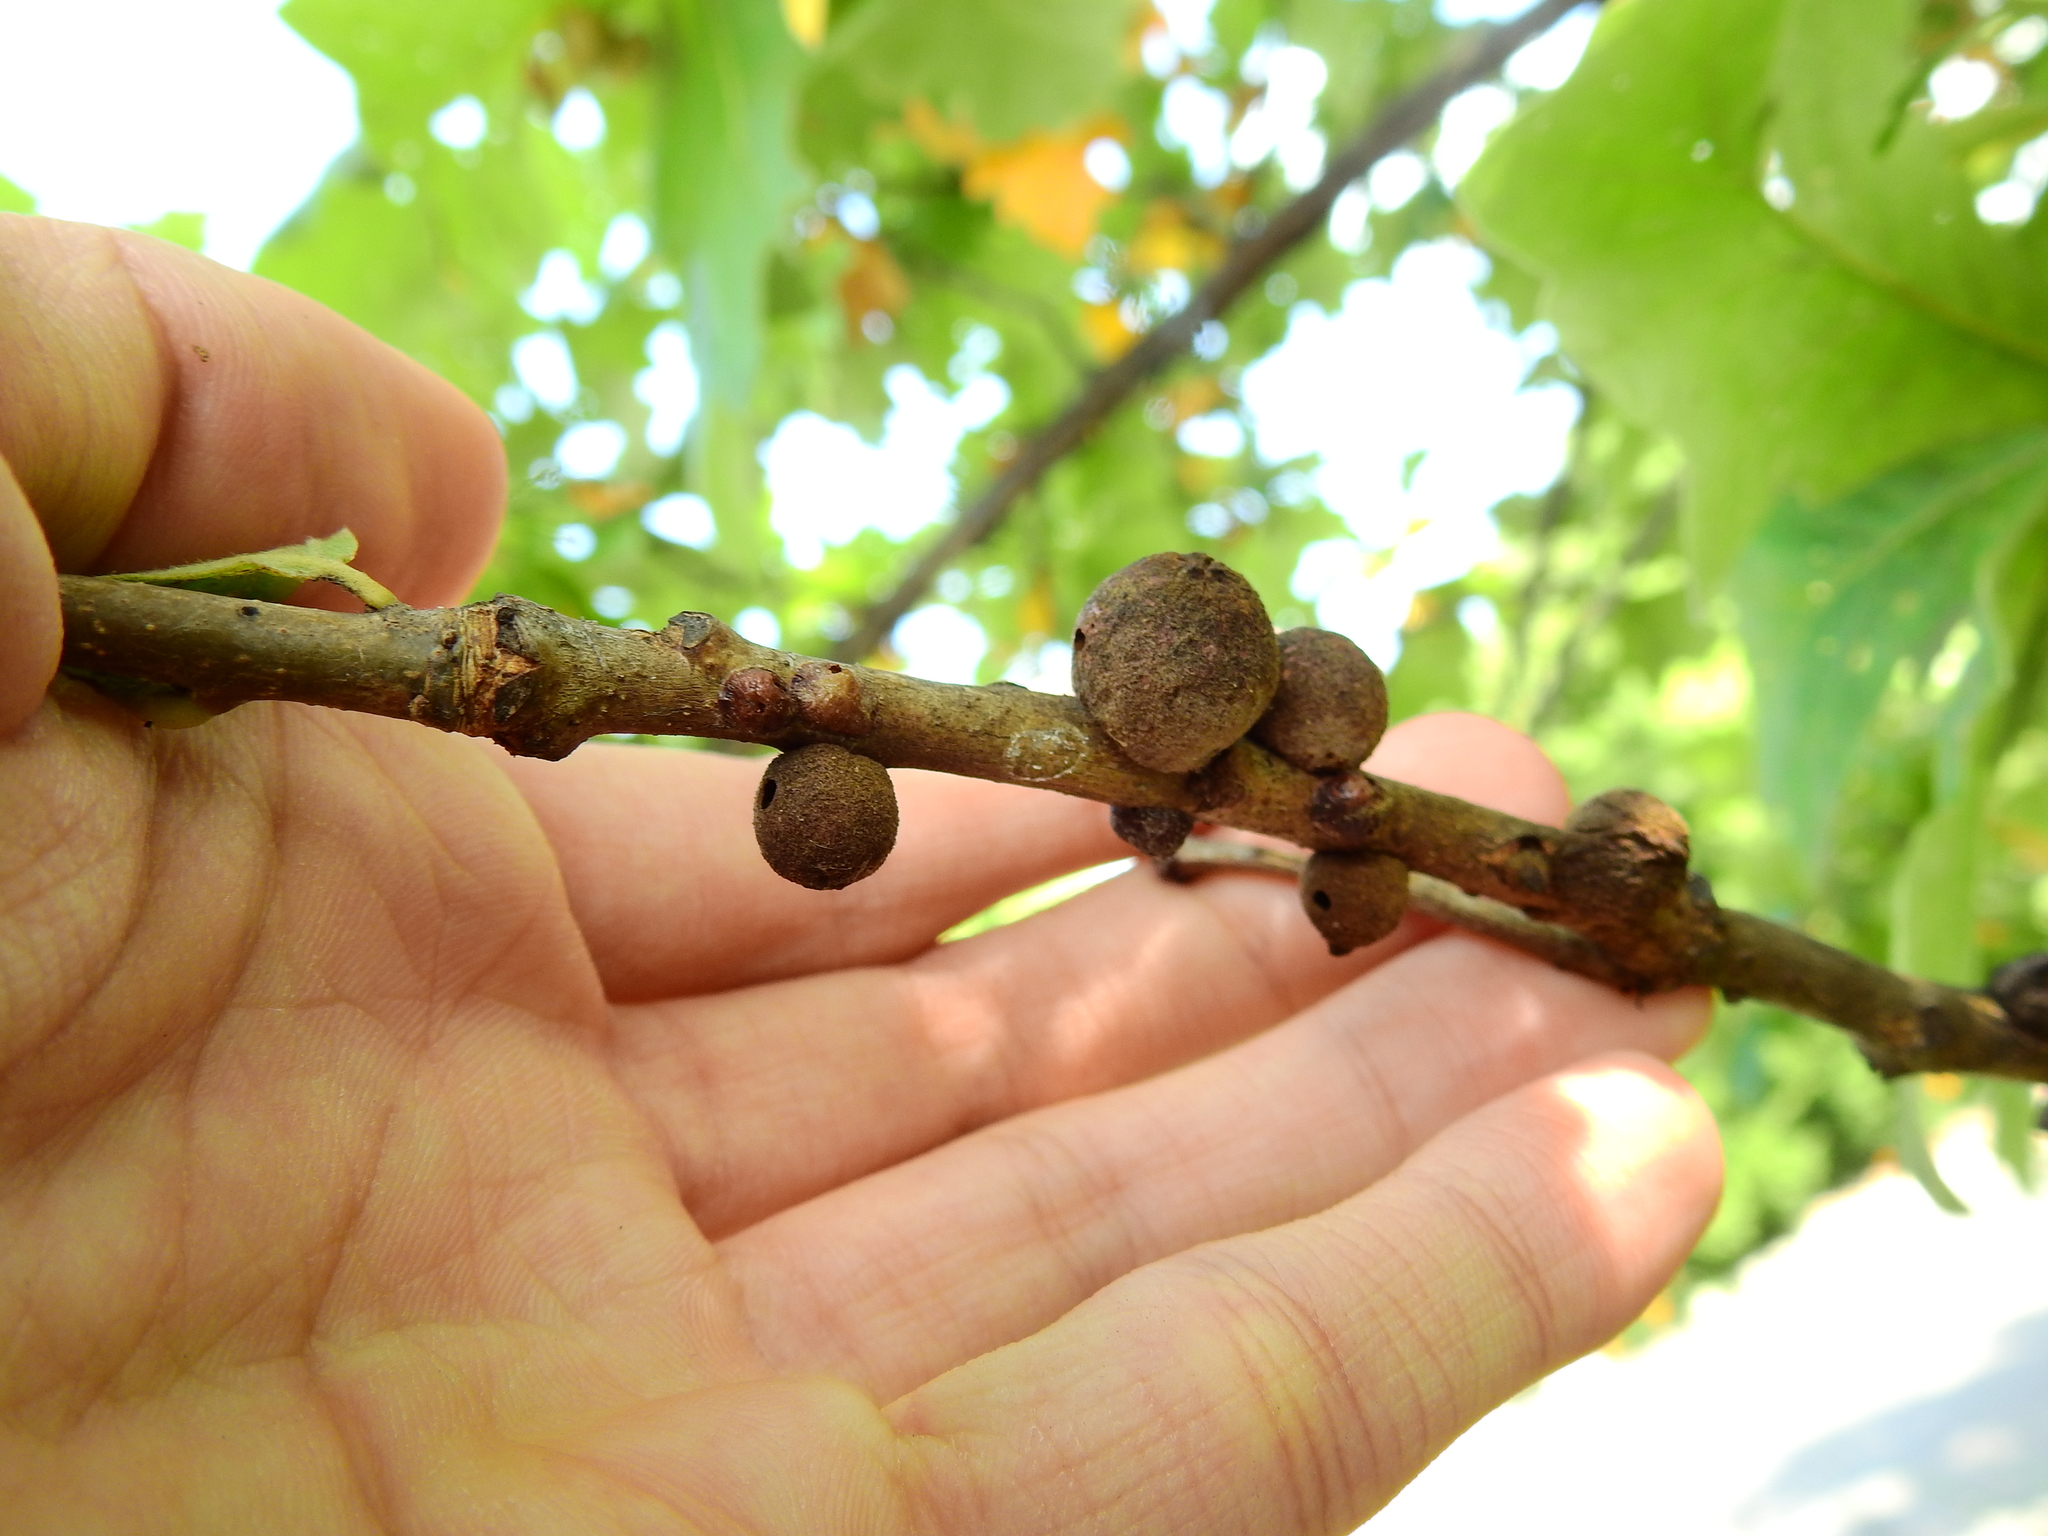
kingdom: Animalia
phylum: Arthropoda
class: Insecta
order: Hymenoptera
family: Cynipidae
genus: Disholcaspis
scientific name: Disholcaspis
